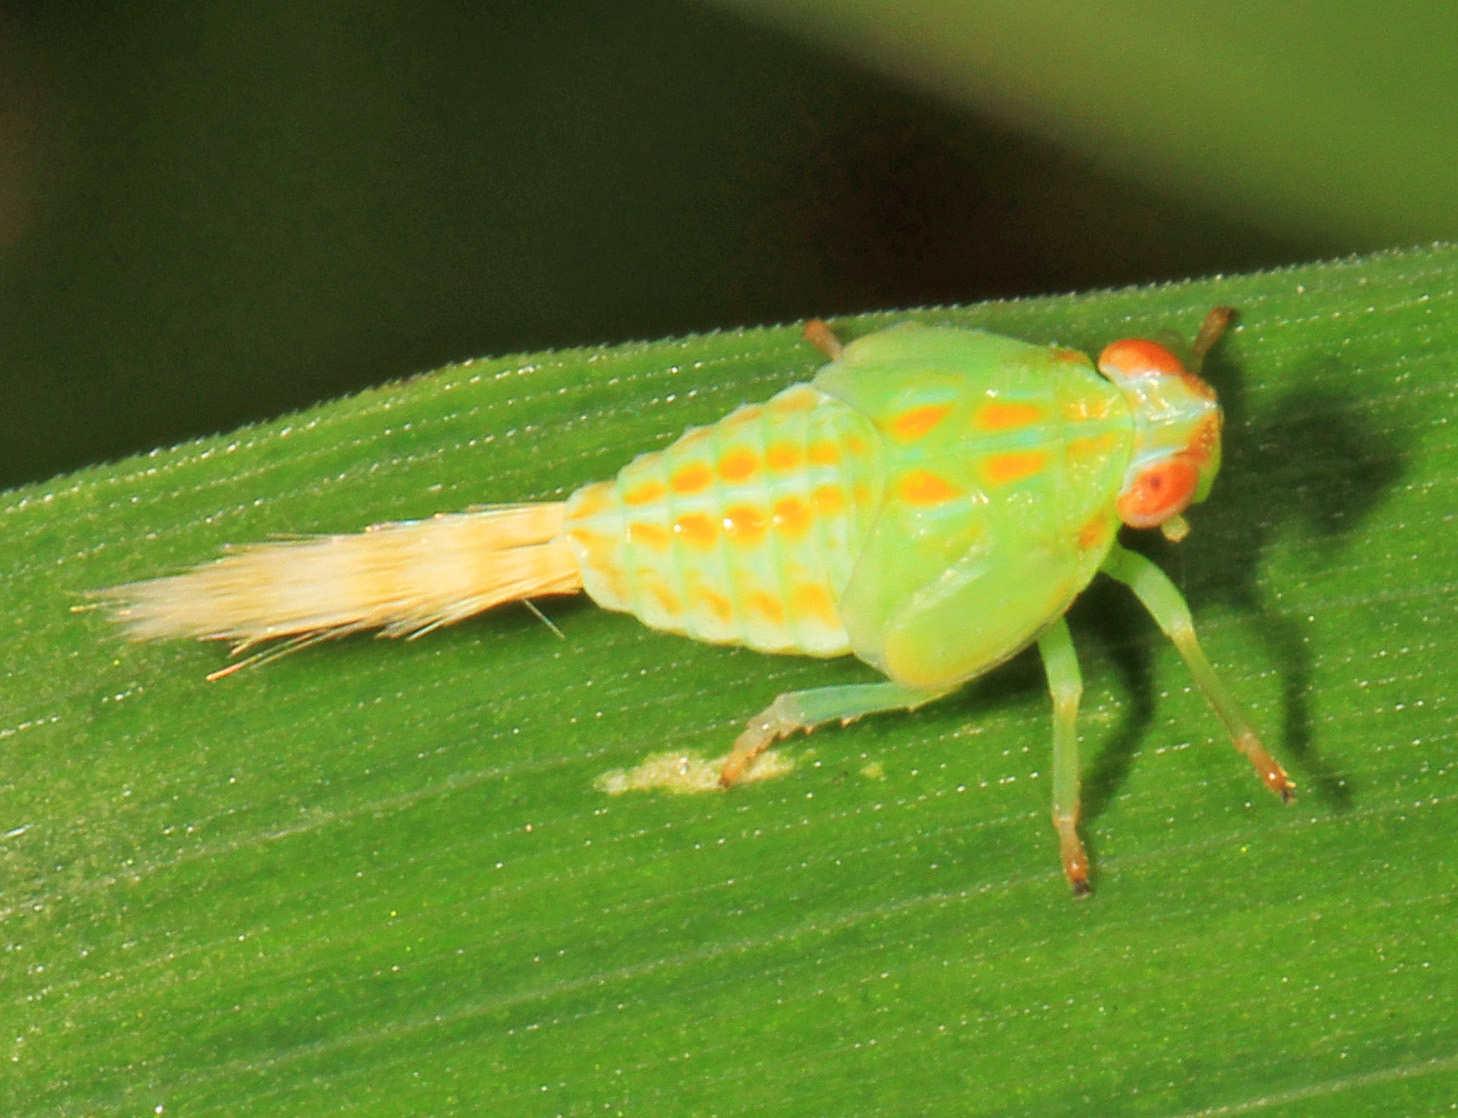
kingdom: Animalia
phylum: Arthropoda
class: Insecta
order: Hemiptera
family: Issidae
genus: Thionia
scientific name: Thionia quinquata
